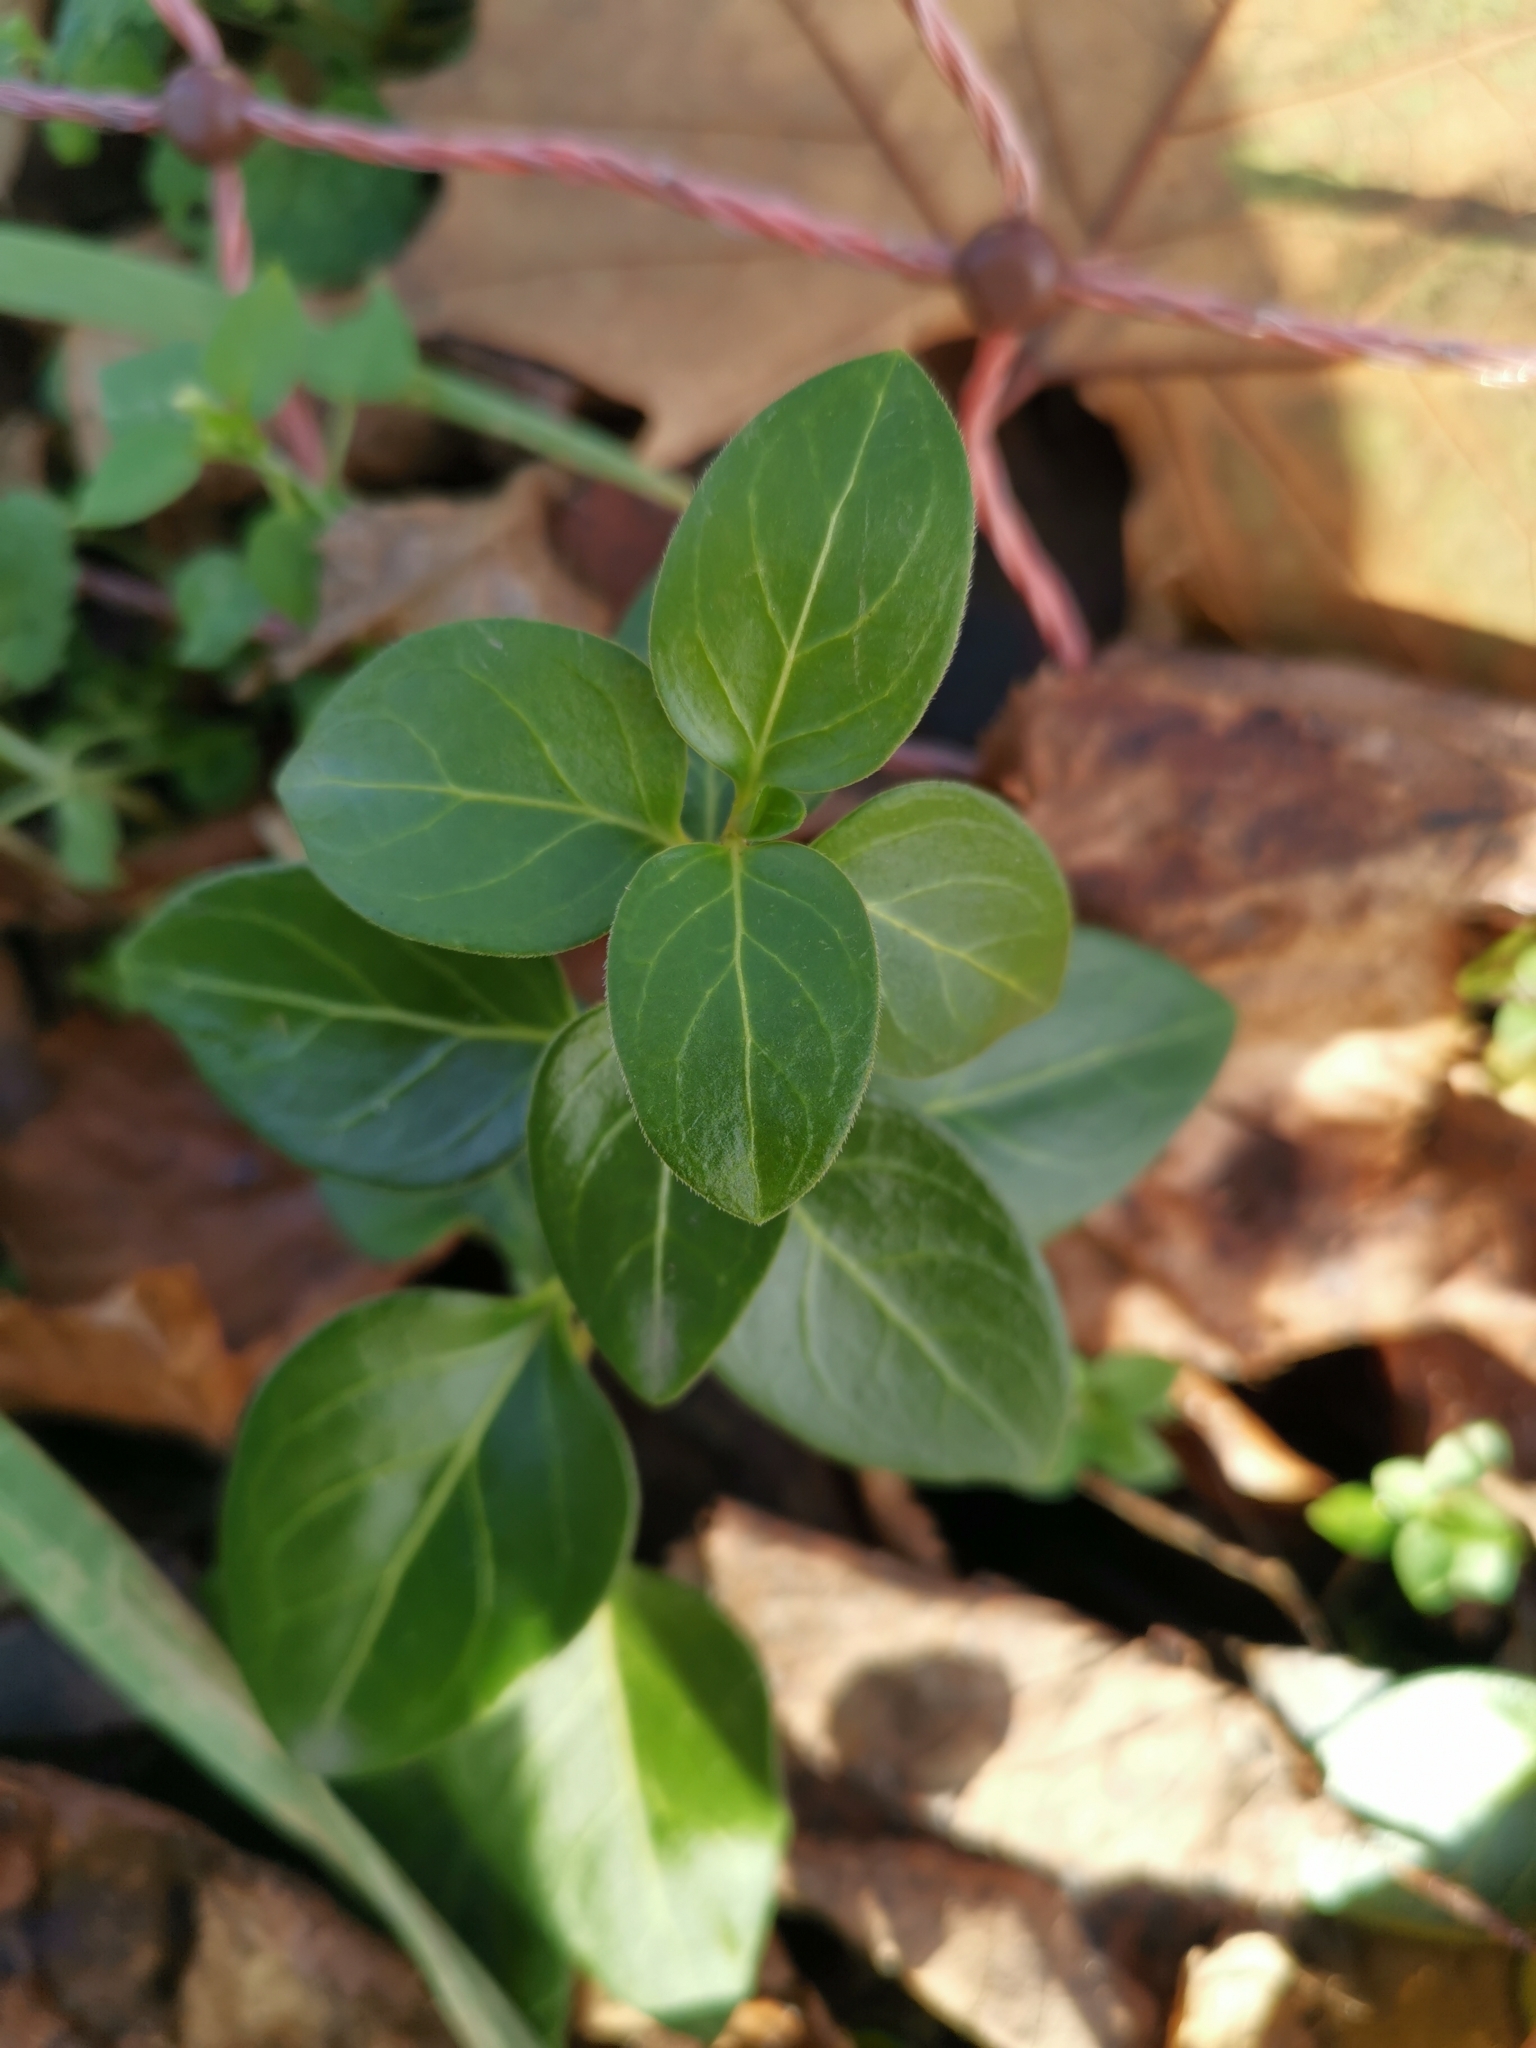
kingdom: Plantae
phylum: Tracheophyta
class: Magnoliopsida
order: Gentianales
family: Apocynaceae
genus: Vinca
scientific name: Vinca major
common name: Greater periwinkle
